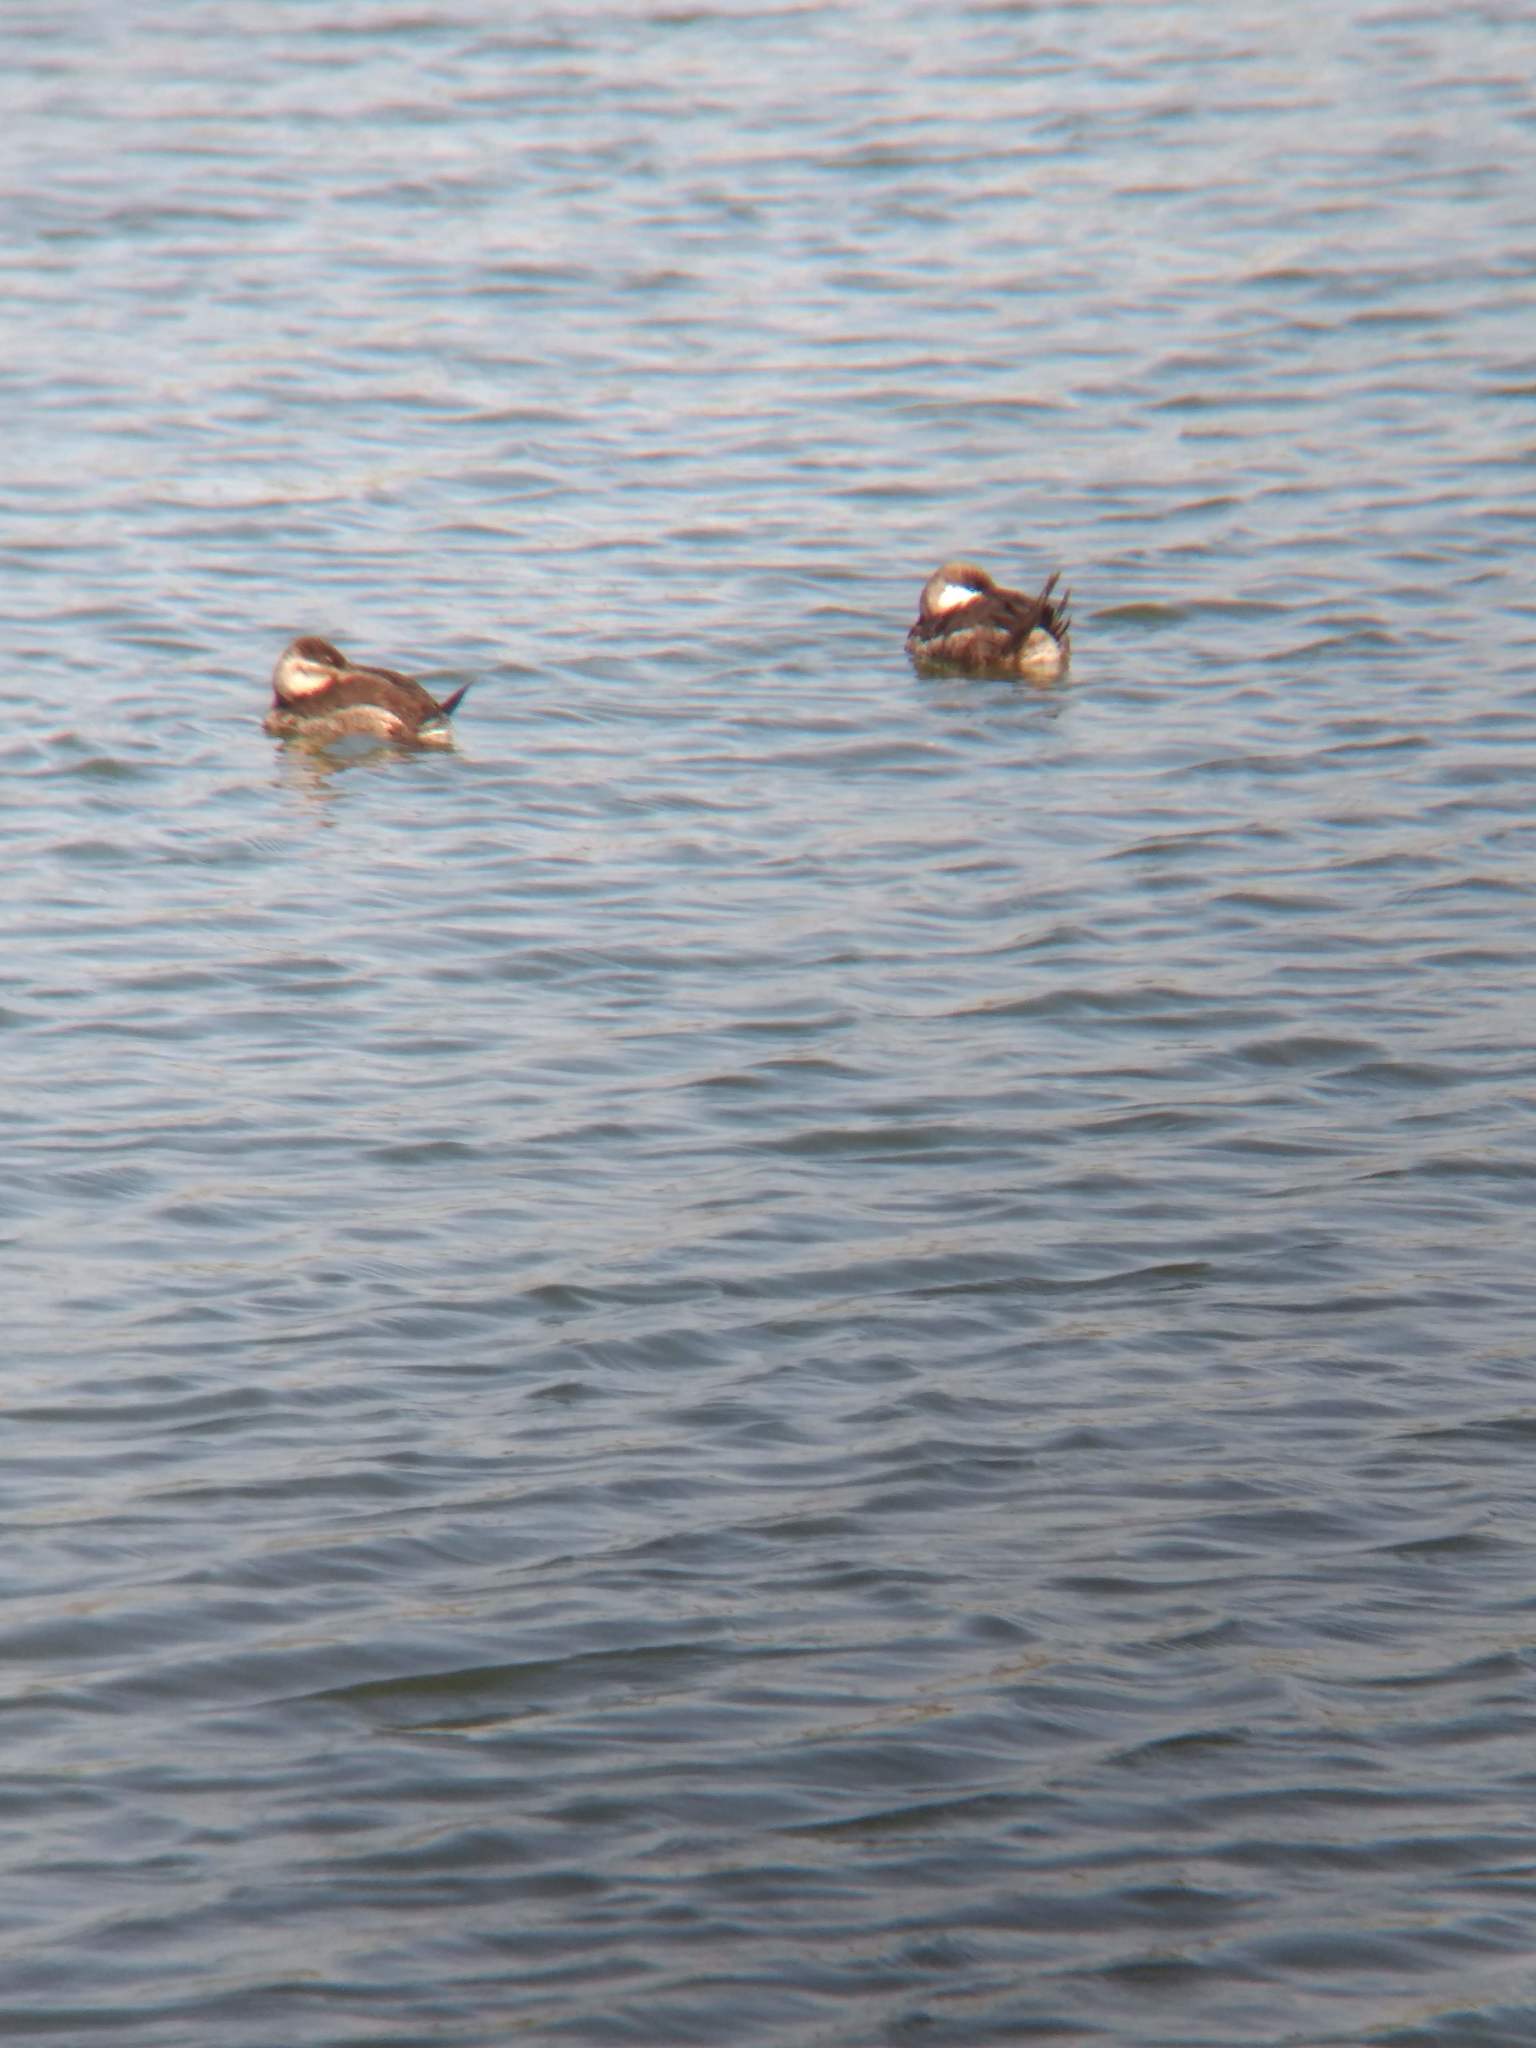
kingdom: Animalia
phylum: Chordata
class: Aves
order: Anseriformes
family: Anatidae
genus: Oxyura
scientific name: Oxyura jamaicensis
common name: Ruddy duck
